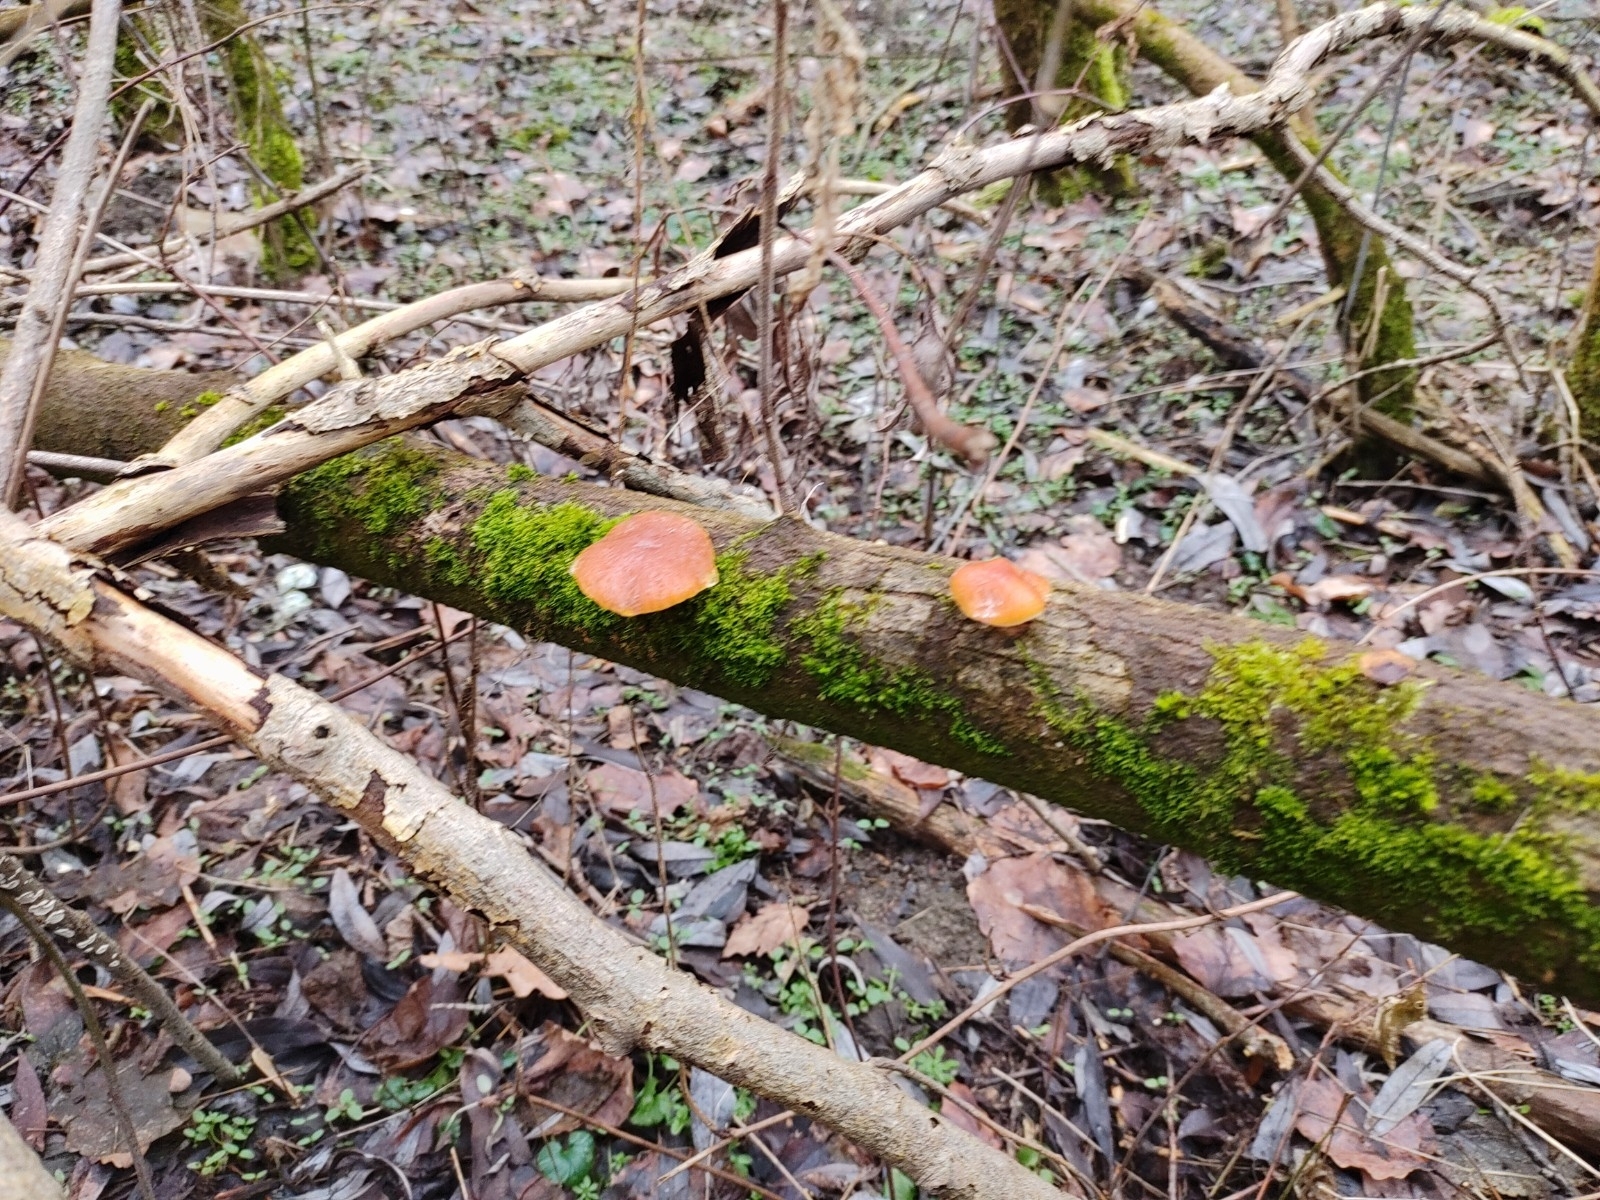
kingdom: Fungi
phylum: Basidiomycota
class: Agaricomycetes
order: Agaricales
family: Physalacriaceae
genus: Flammulina
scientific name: Flammulina
